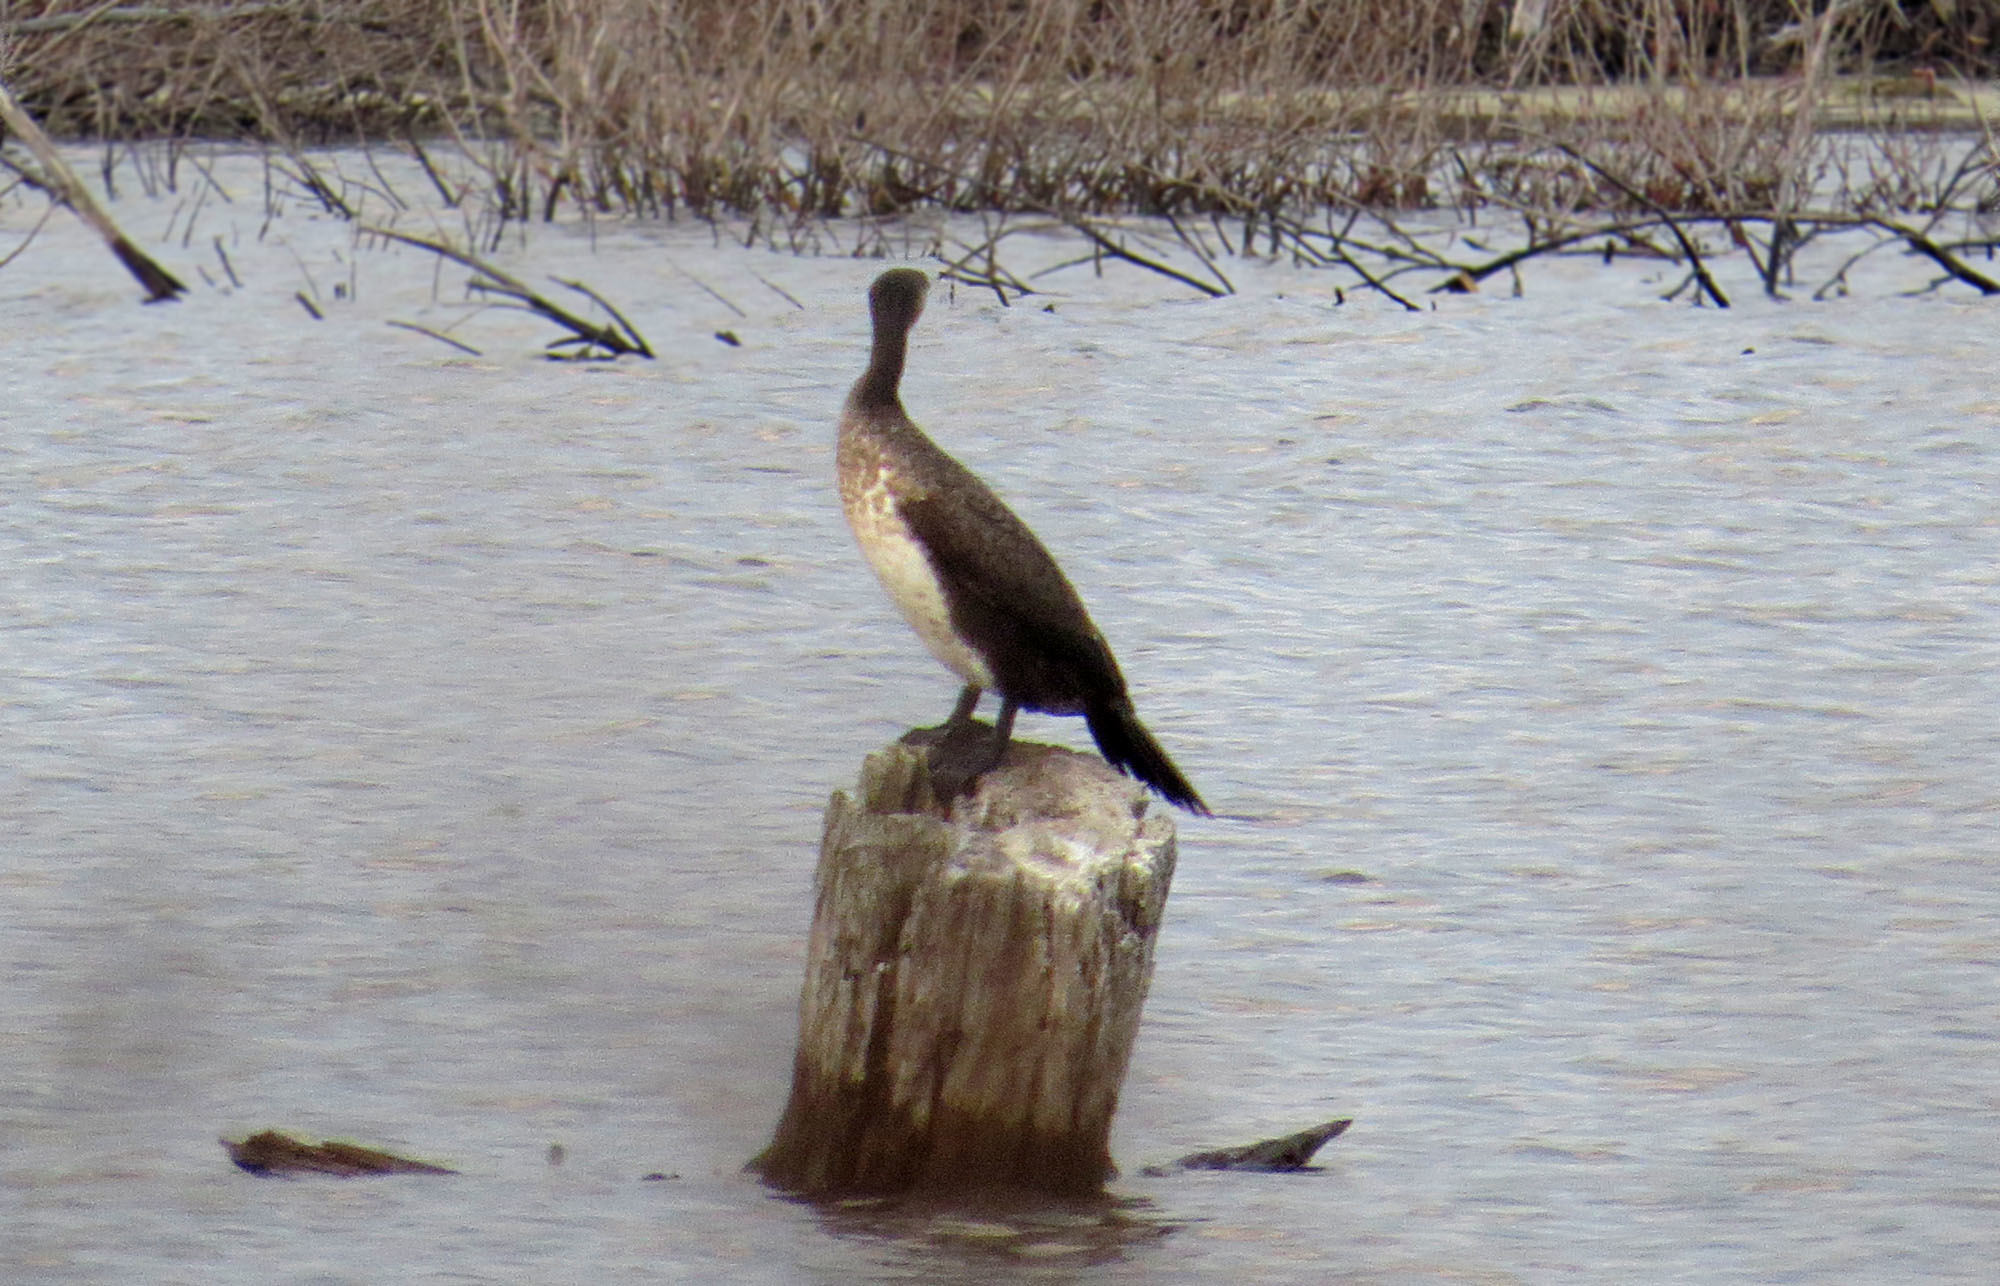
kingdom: Animalia
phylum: Chordata
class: Aves
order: Suliformes
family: Phalacrocoracidae
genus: Phalacrocorax
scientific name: Phalacrocorax carbo
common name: Great cormorant
